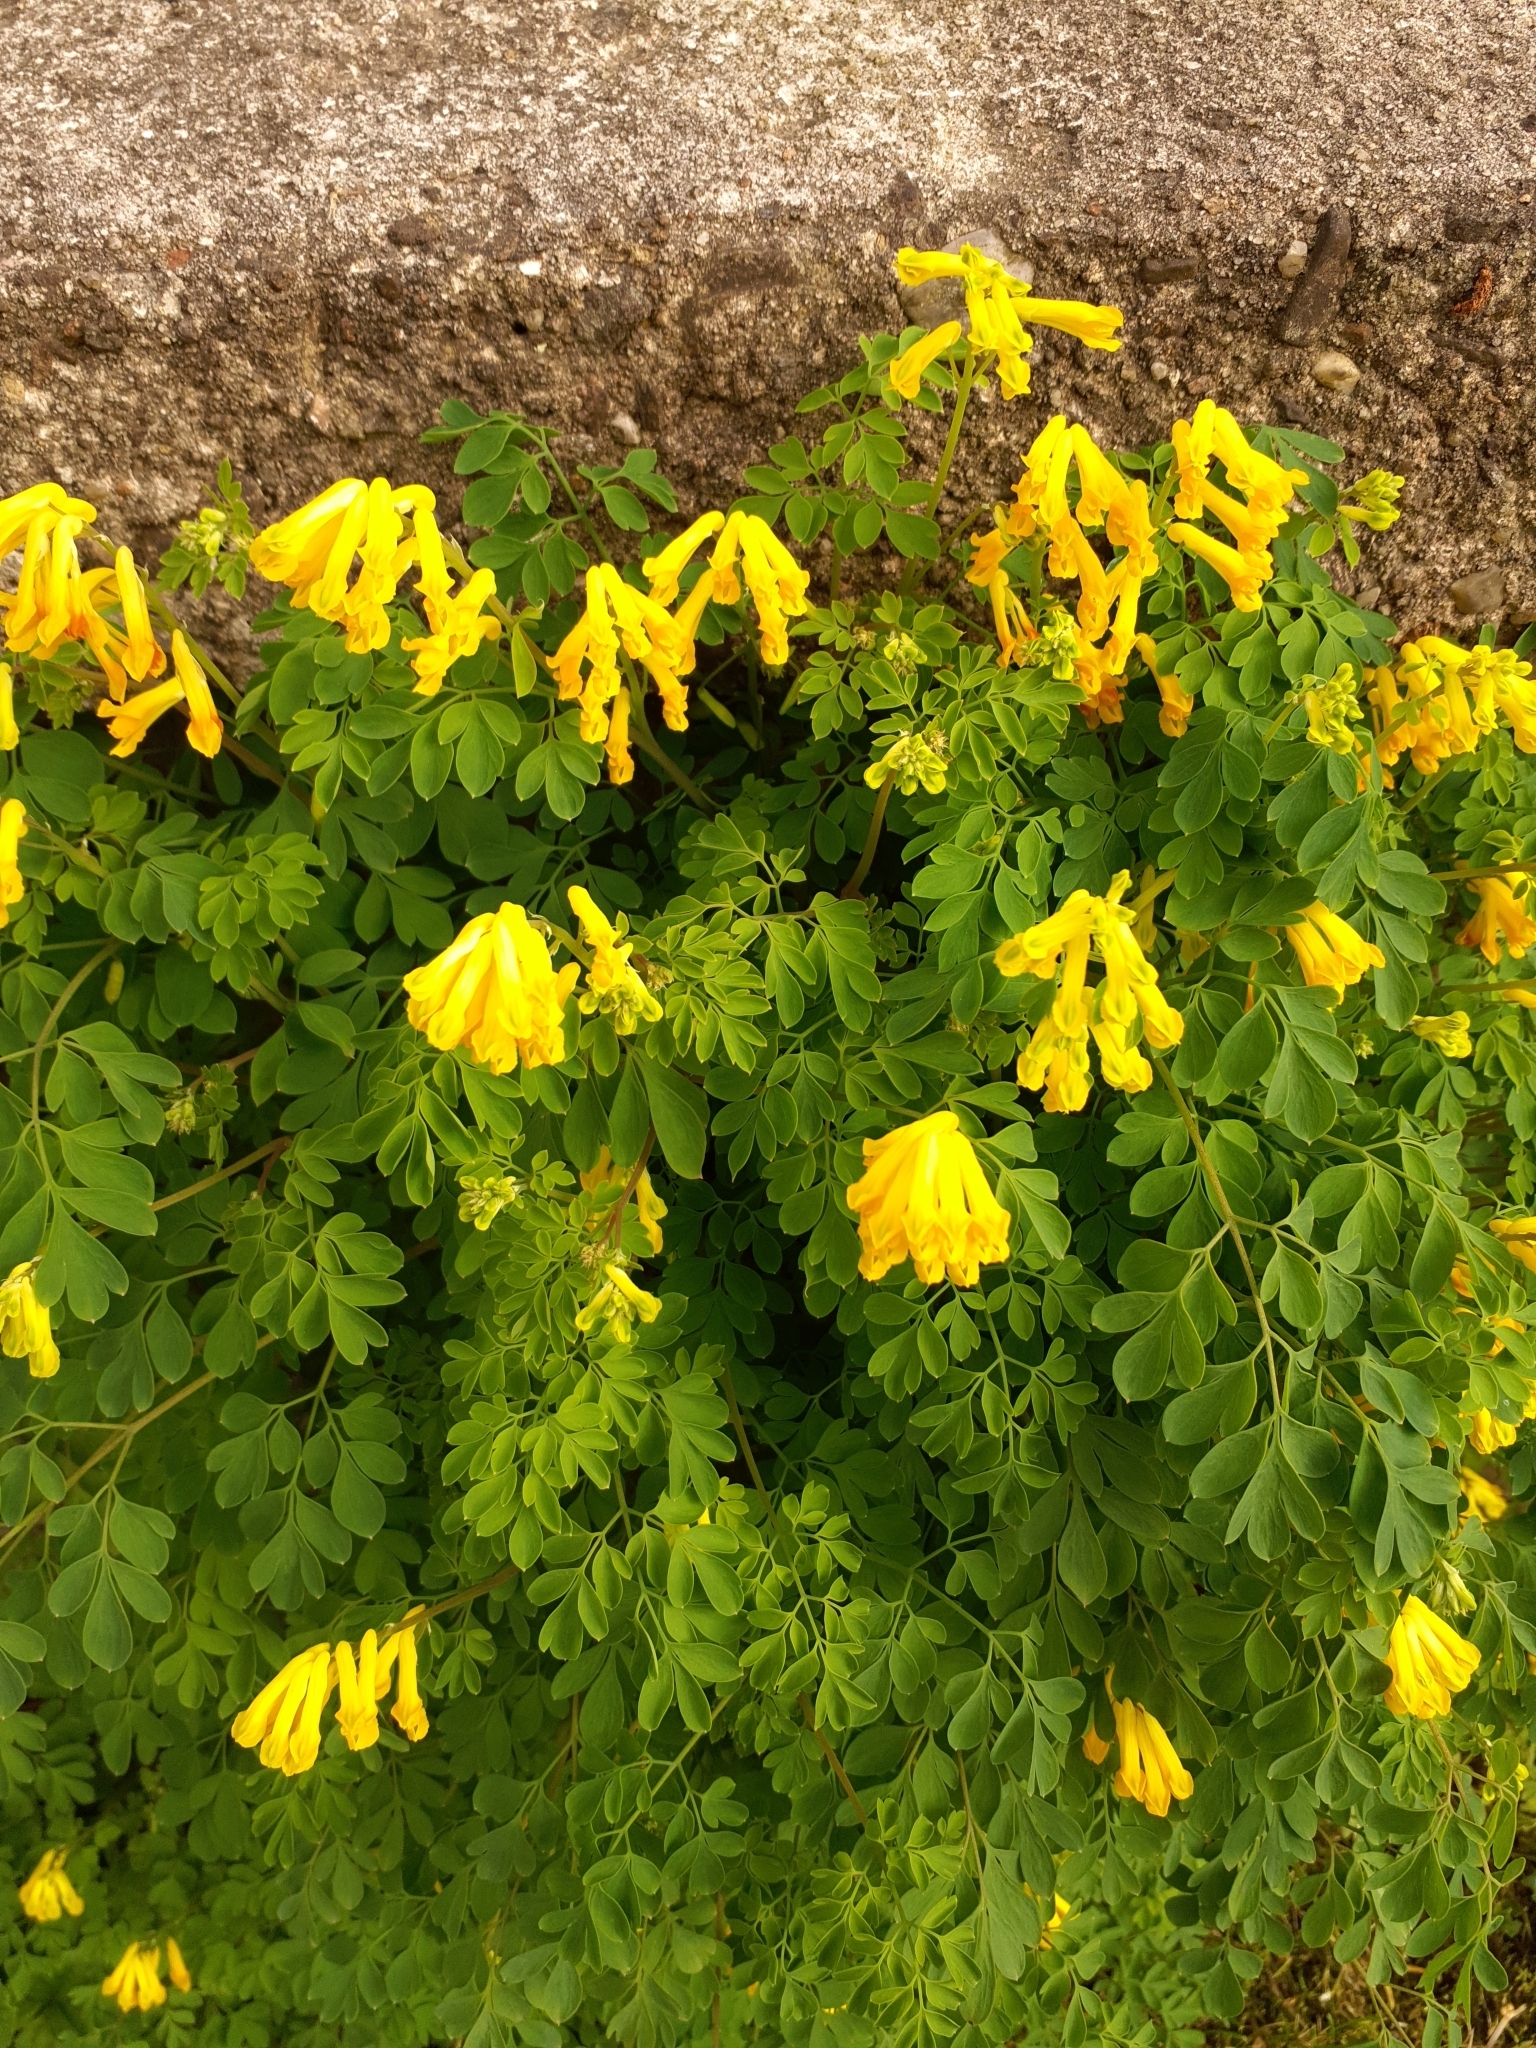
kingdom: Plantae
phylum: Tracheophyta
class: Magnoliopsida
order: Ranunculales
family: Papaveraceae
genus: Pseudofumaria
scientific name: Pseudofumaria lutea
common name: Yellow corydalis
